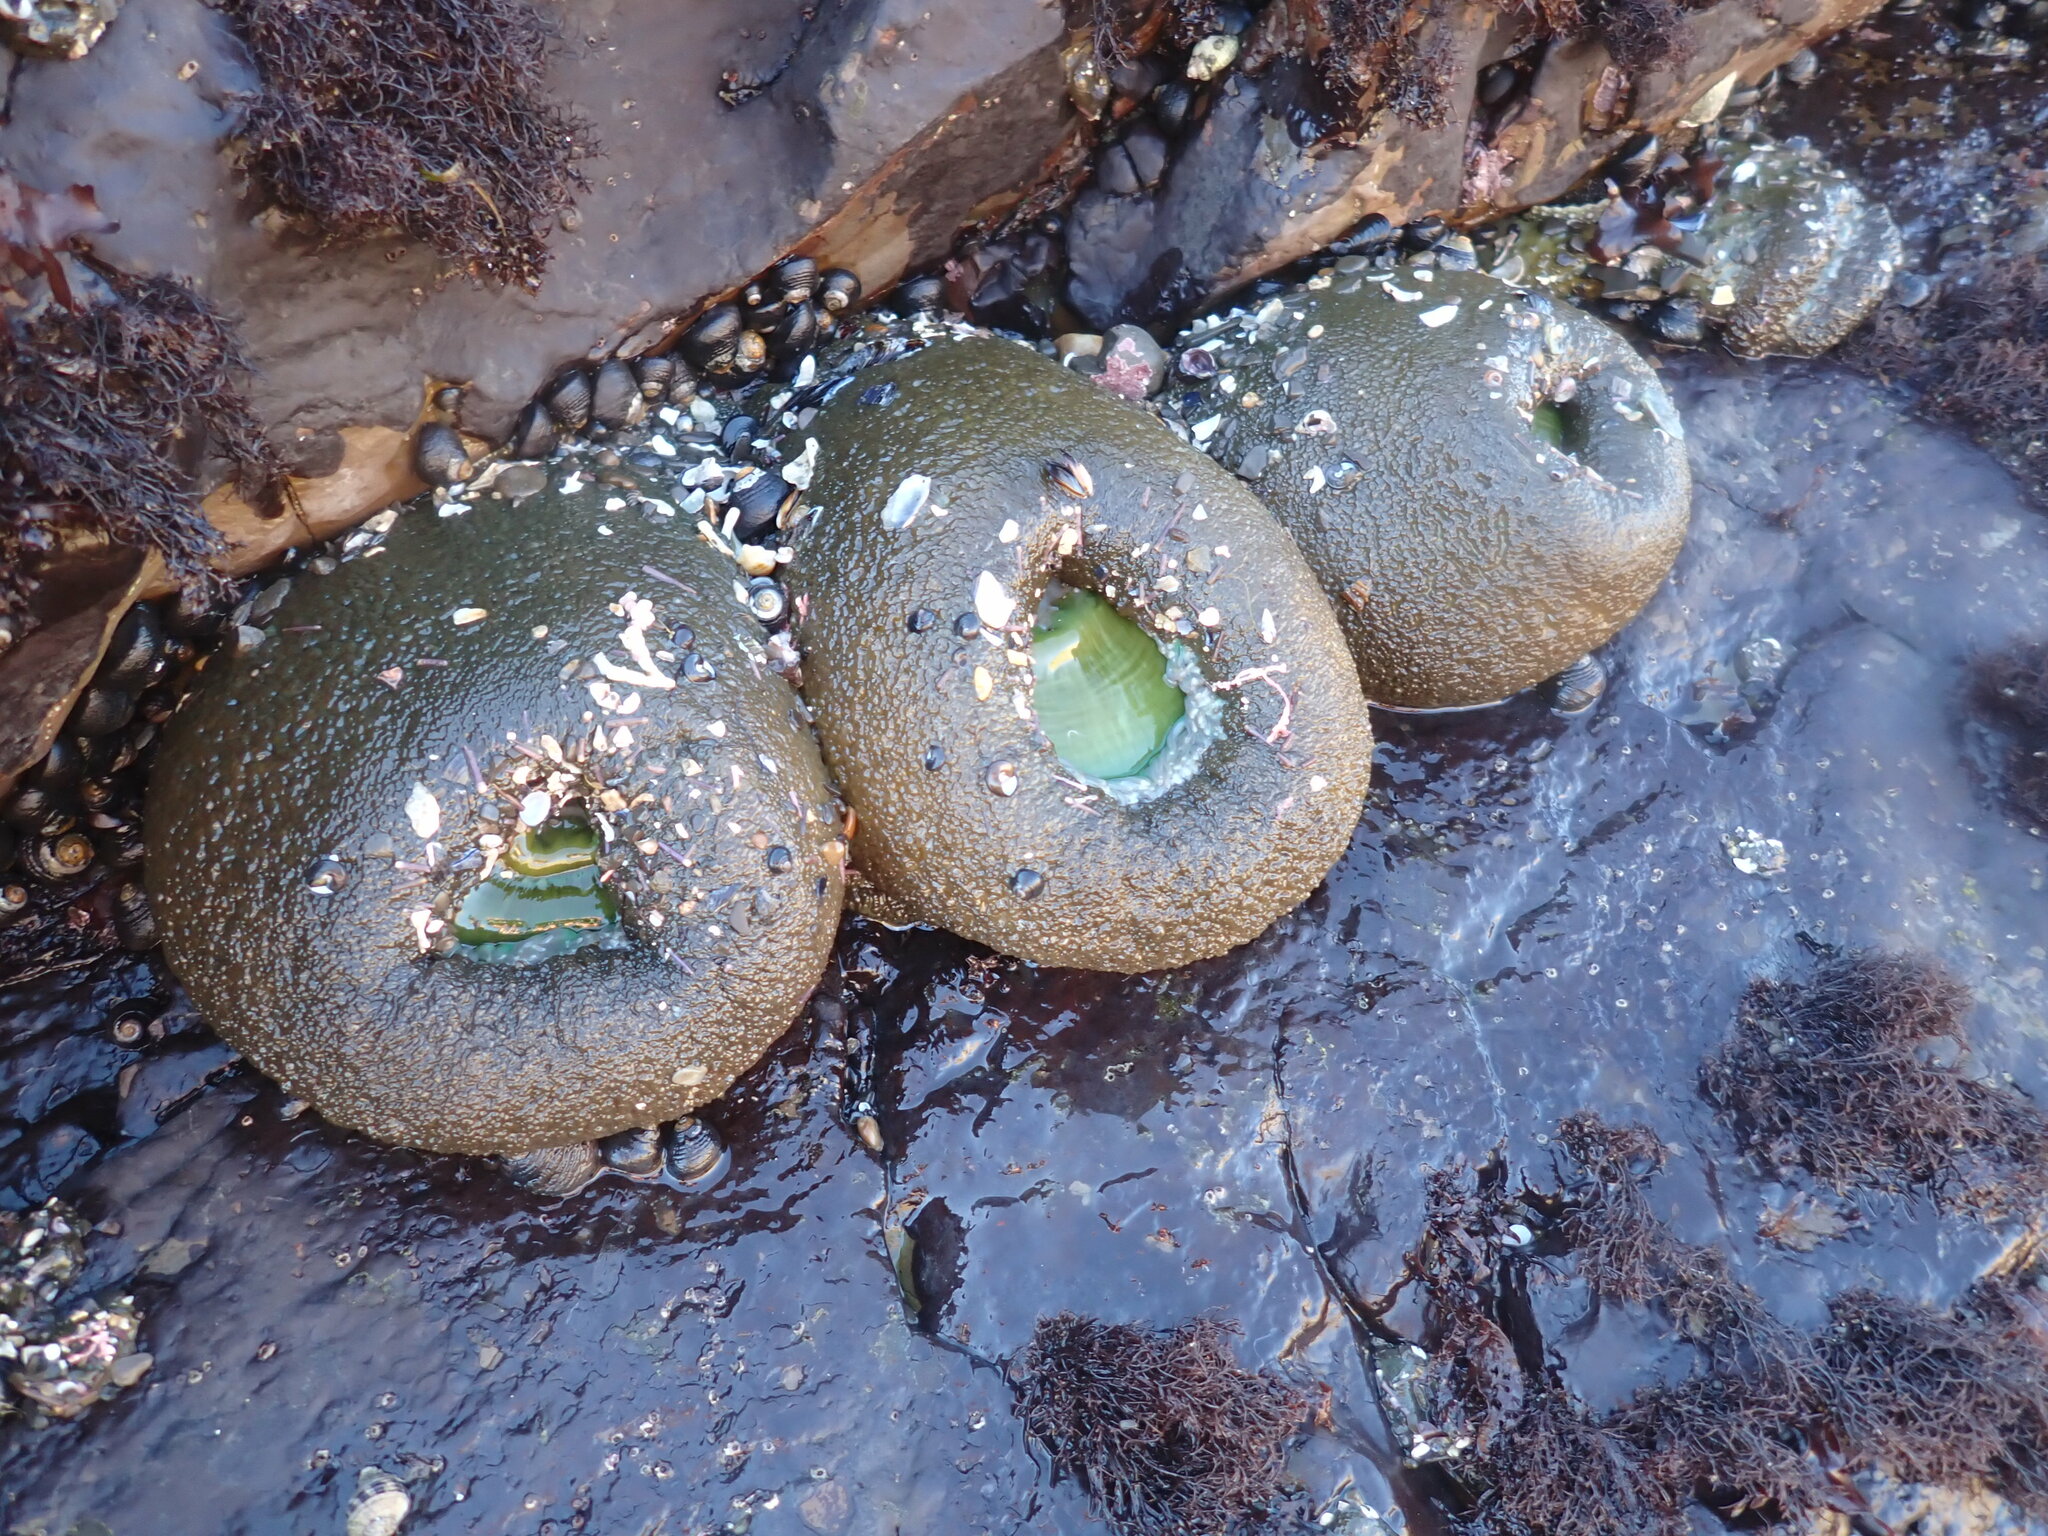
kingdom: Animalia
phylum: Cnidaria
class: Anthozoa
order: Actiniaria
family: Actiniidae
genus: Anthopleura
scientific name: Anthopleura xanthogrammica
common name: Giant green anemone
